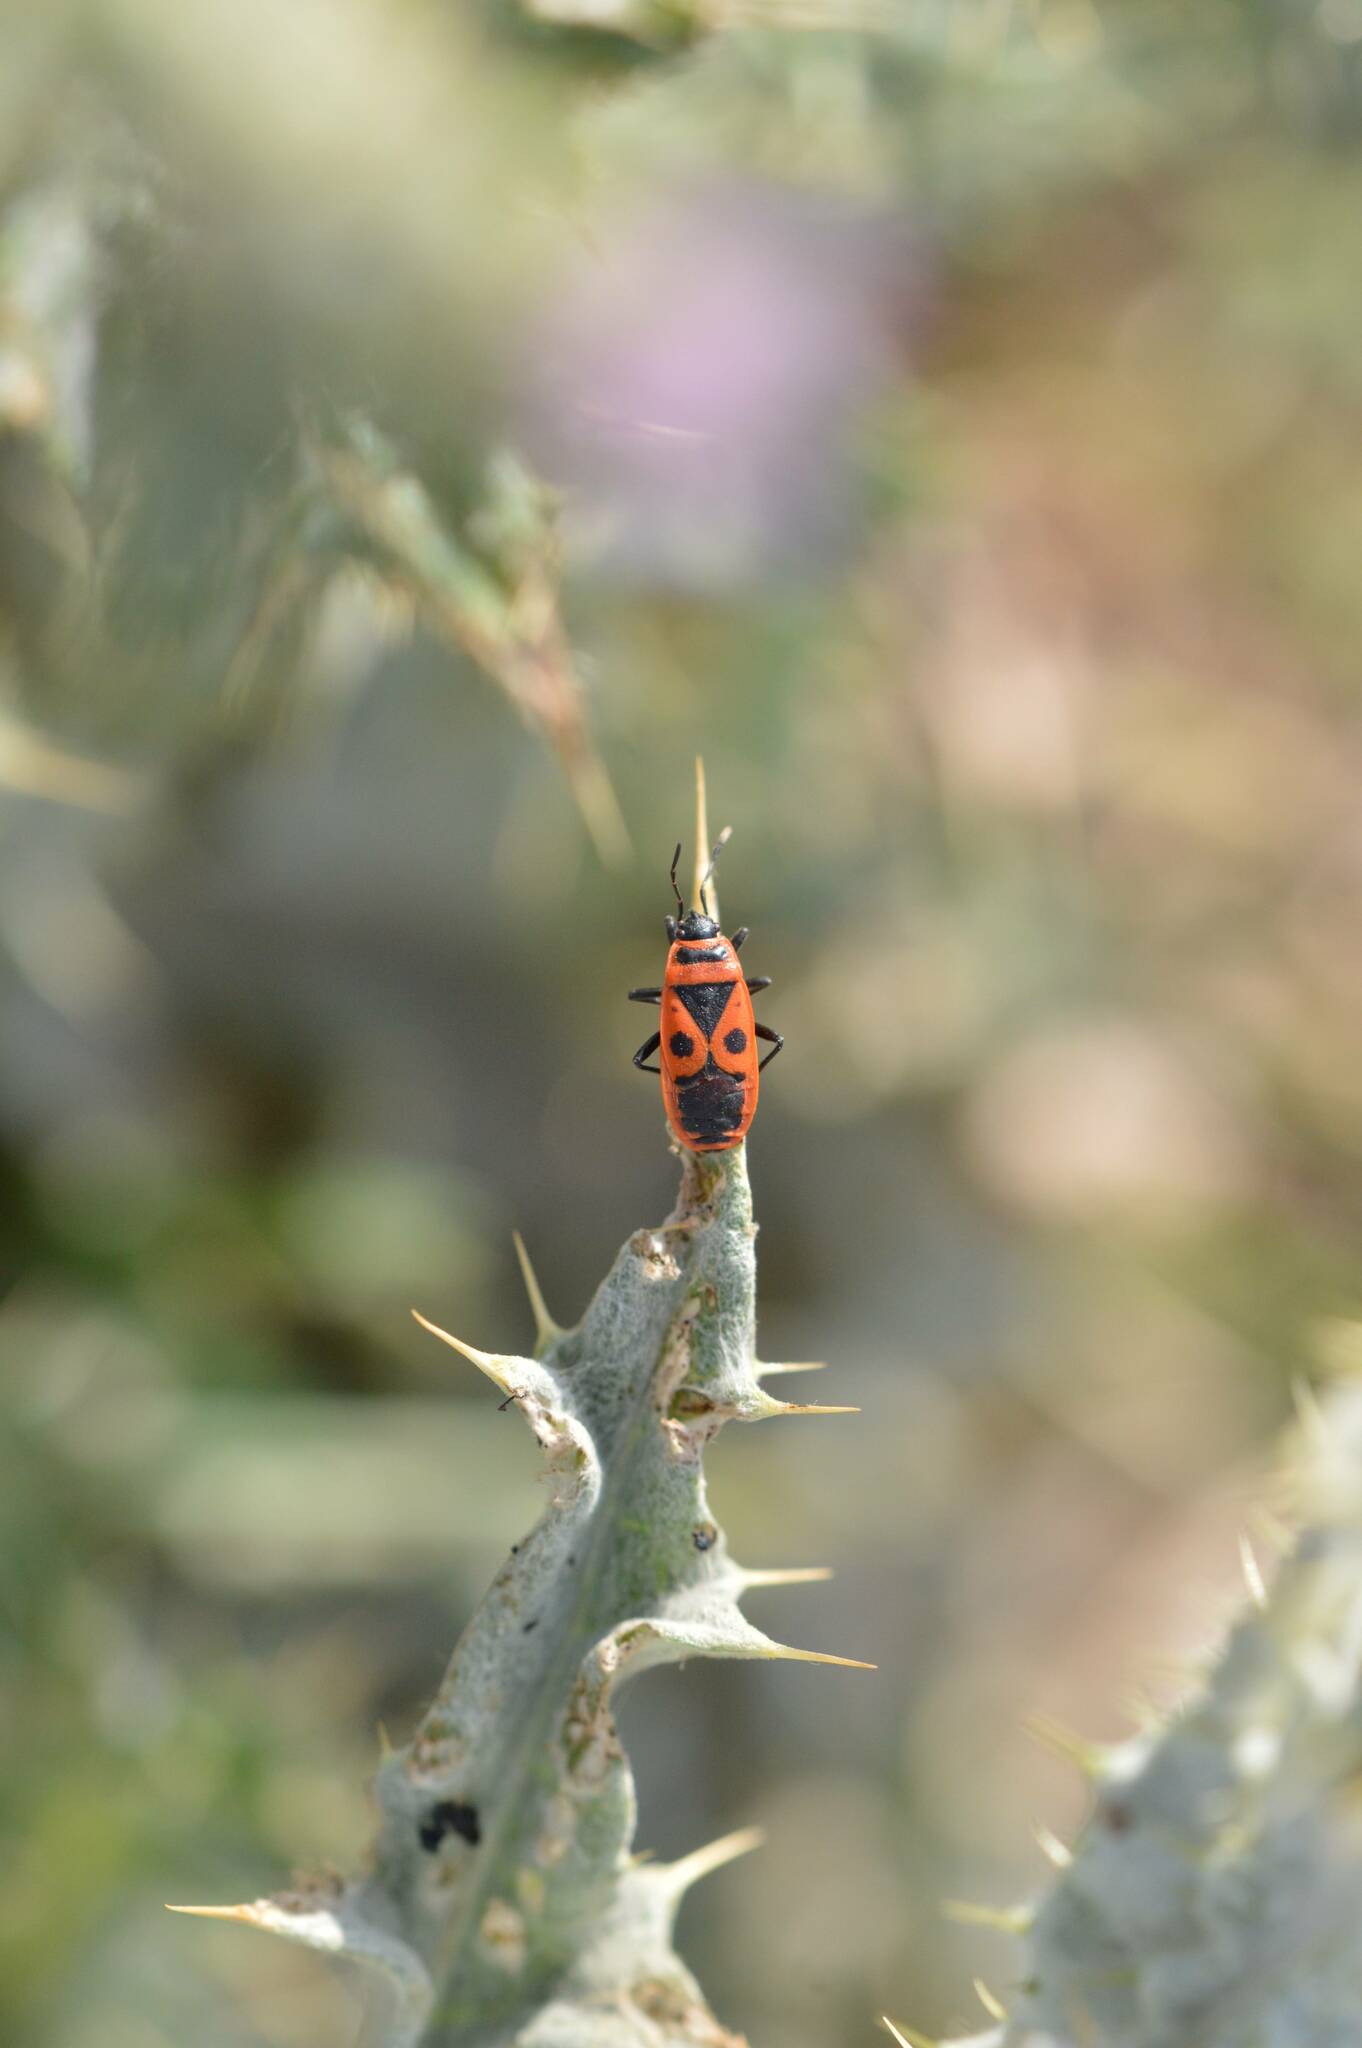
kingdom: Animalia
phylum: Arthropoda
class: Insecta
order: Hemiptera
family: Pyrrhocoridae
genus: Pyrrhocoris
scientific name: Pyrrhocoris apterus
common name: Firebug
